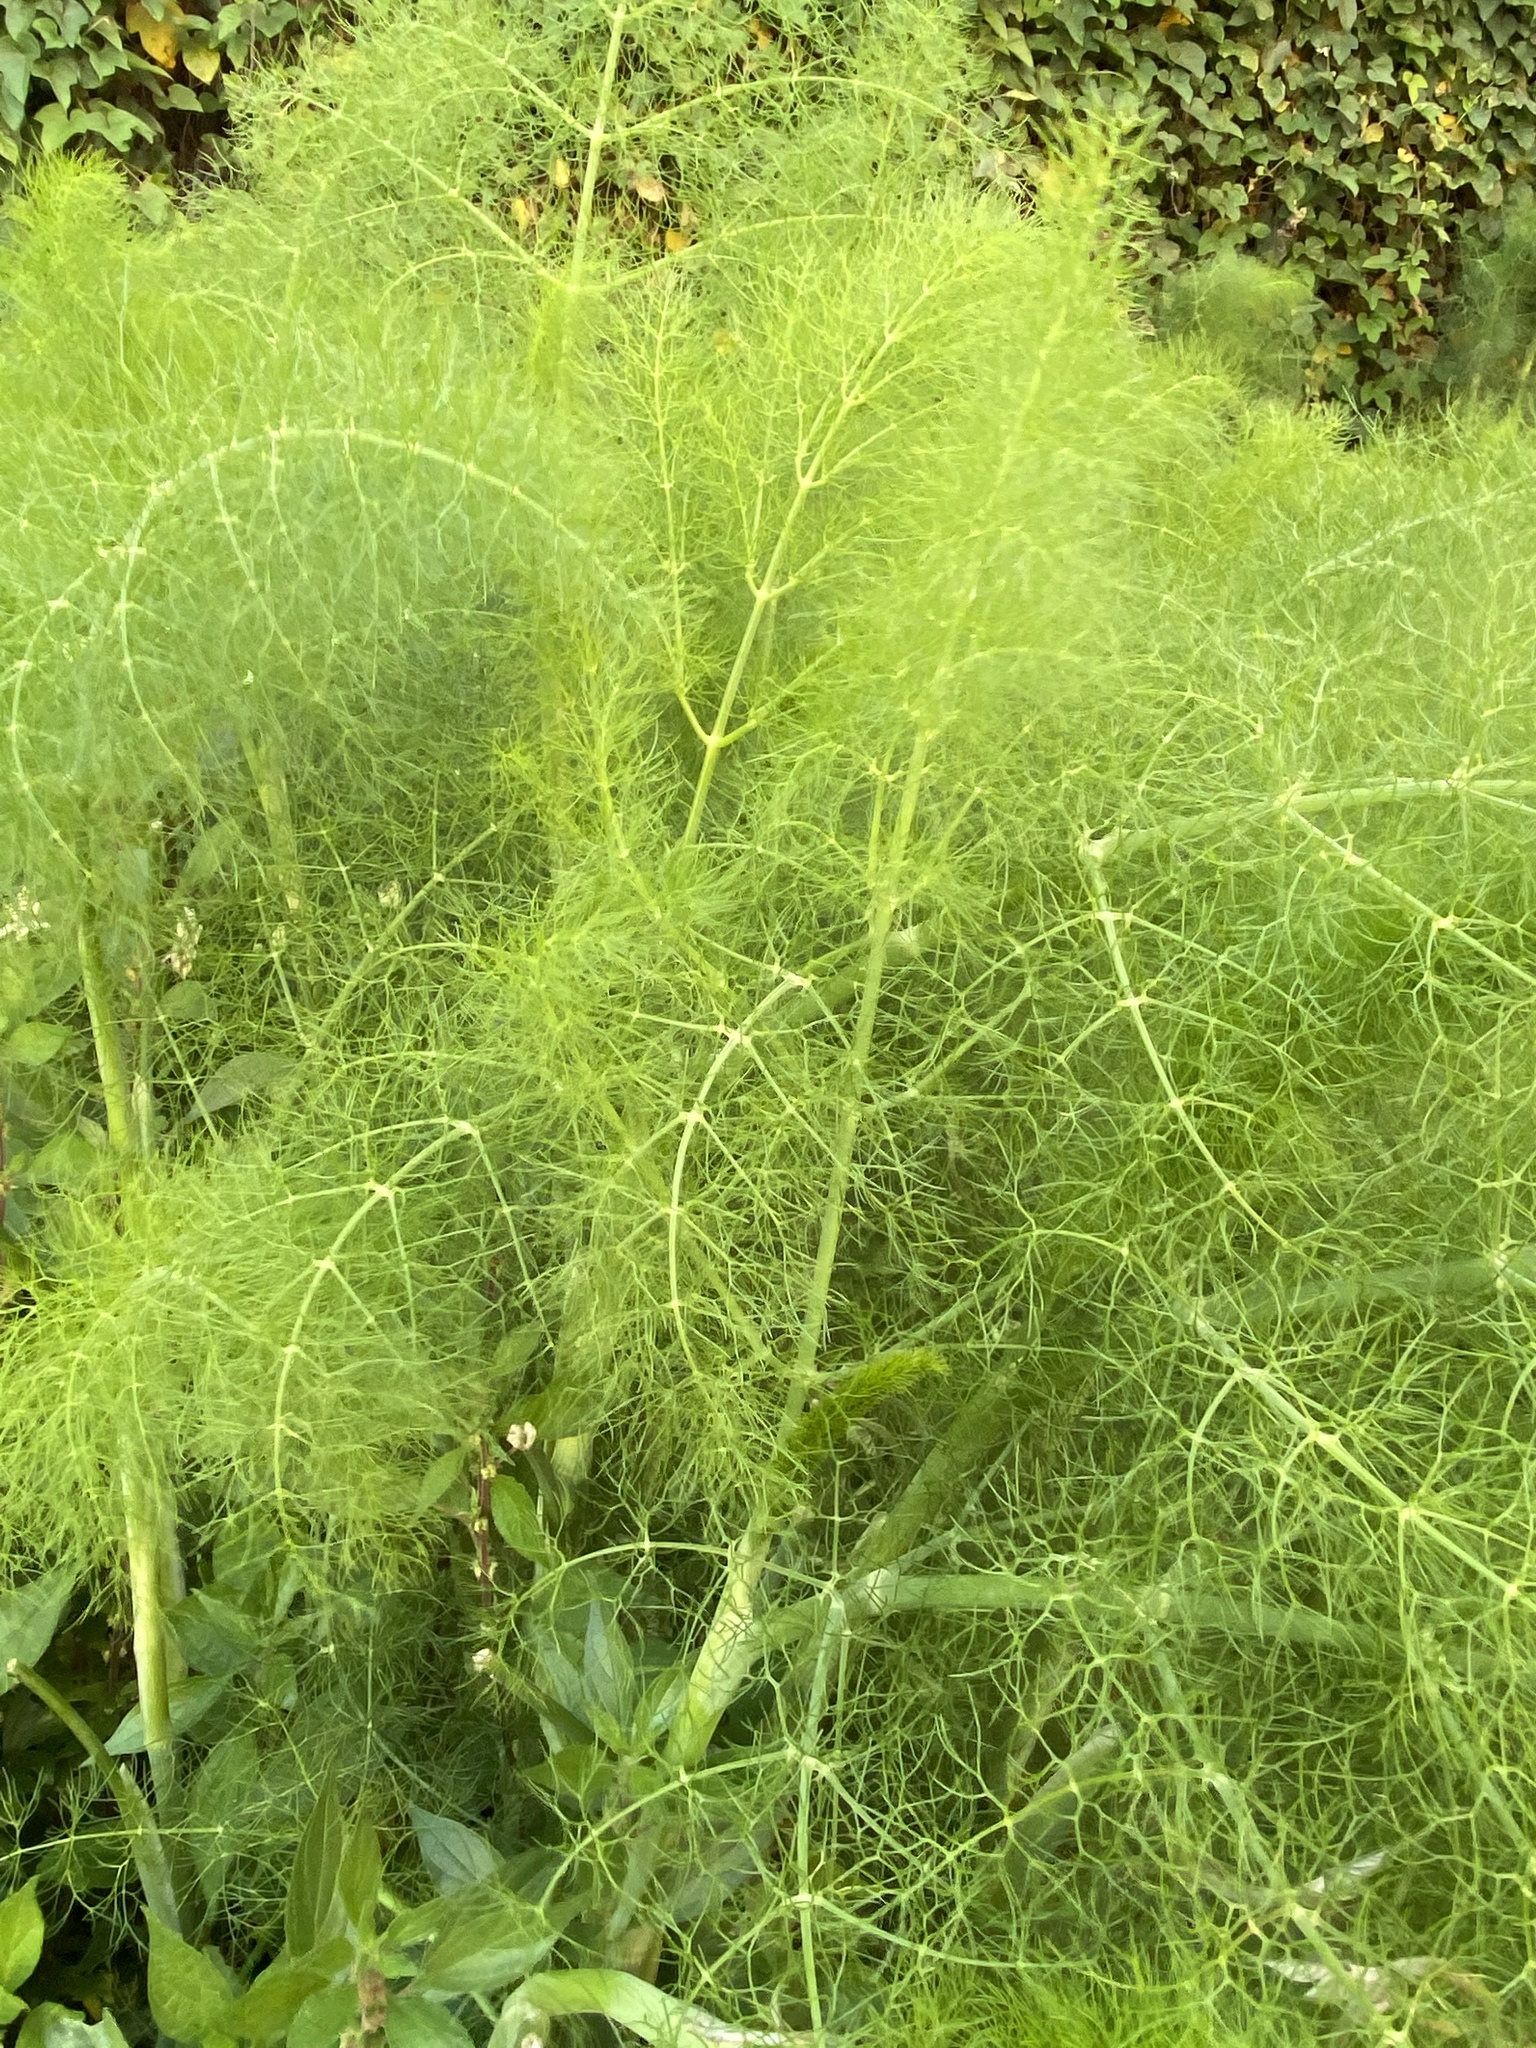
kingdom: Plantae
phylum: Tracheophyta
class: Magnoliopsida
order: Apiales
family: Apiaceae
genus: Foeniculum
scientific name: Foeniculum vulgare
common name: Fennel
